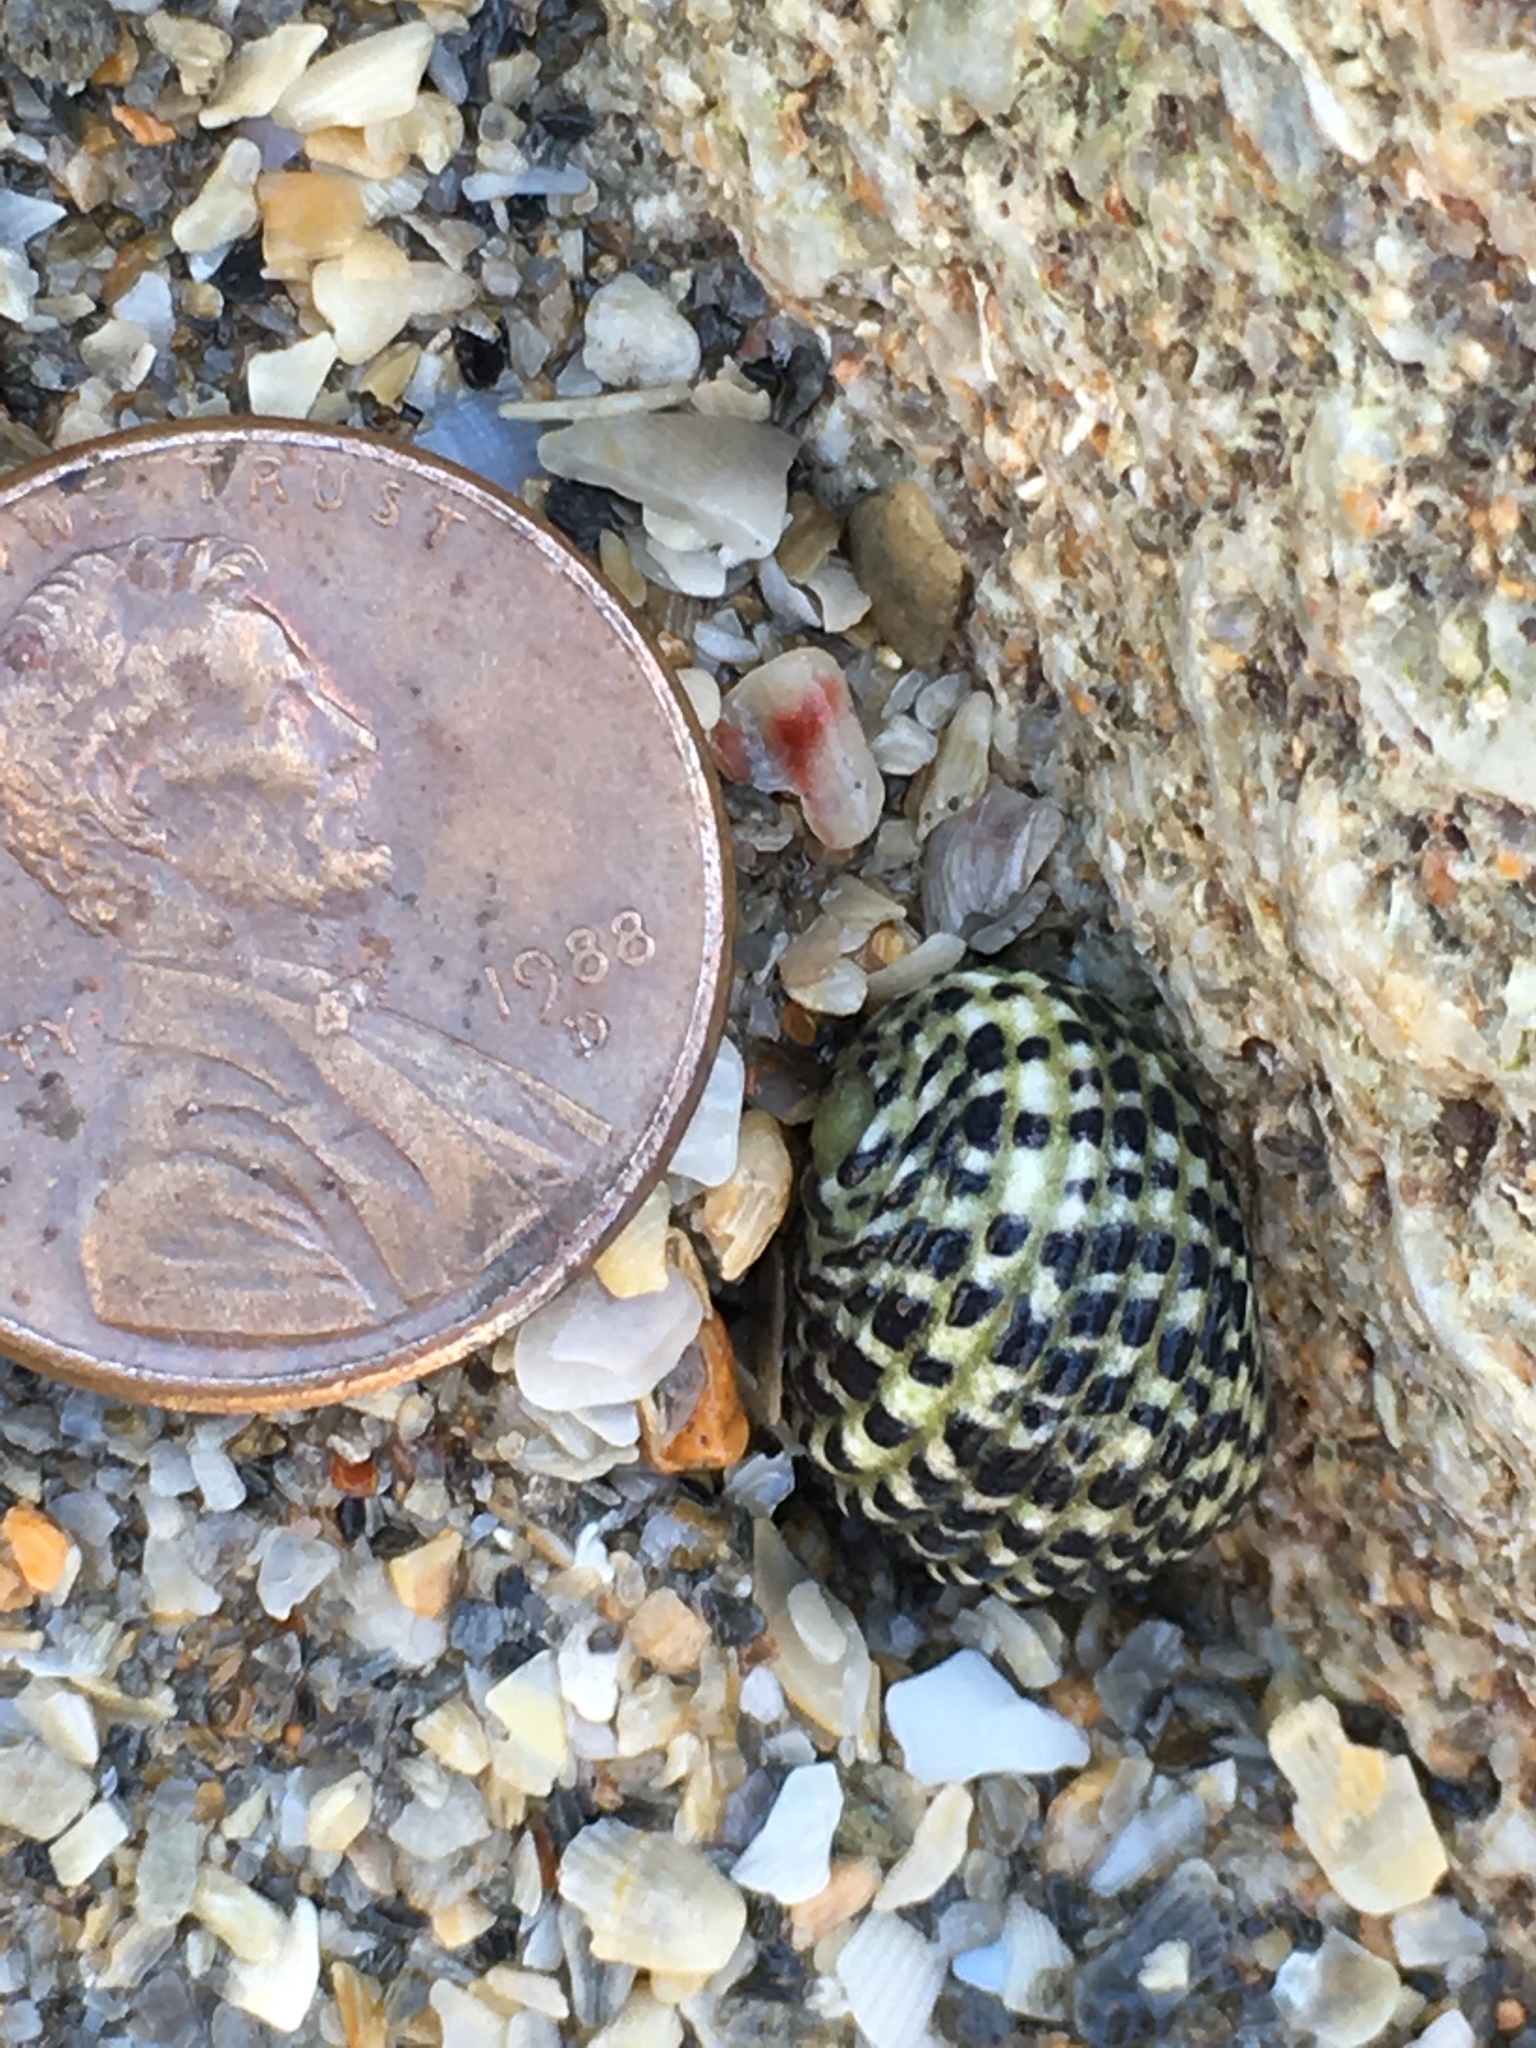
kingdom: Animalia
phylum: Mollusca
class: Gastropoda
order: Cycloneritida
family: Neritidae
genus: Nerita
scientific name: Nerita tessellata
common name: Checkered nerite
